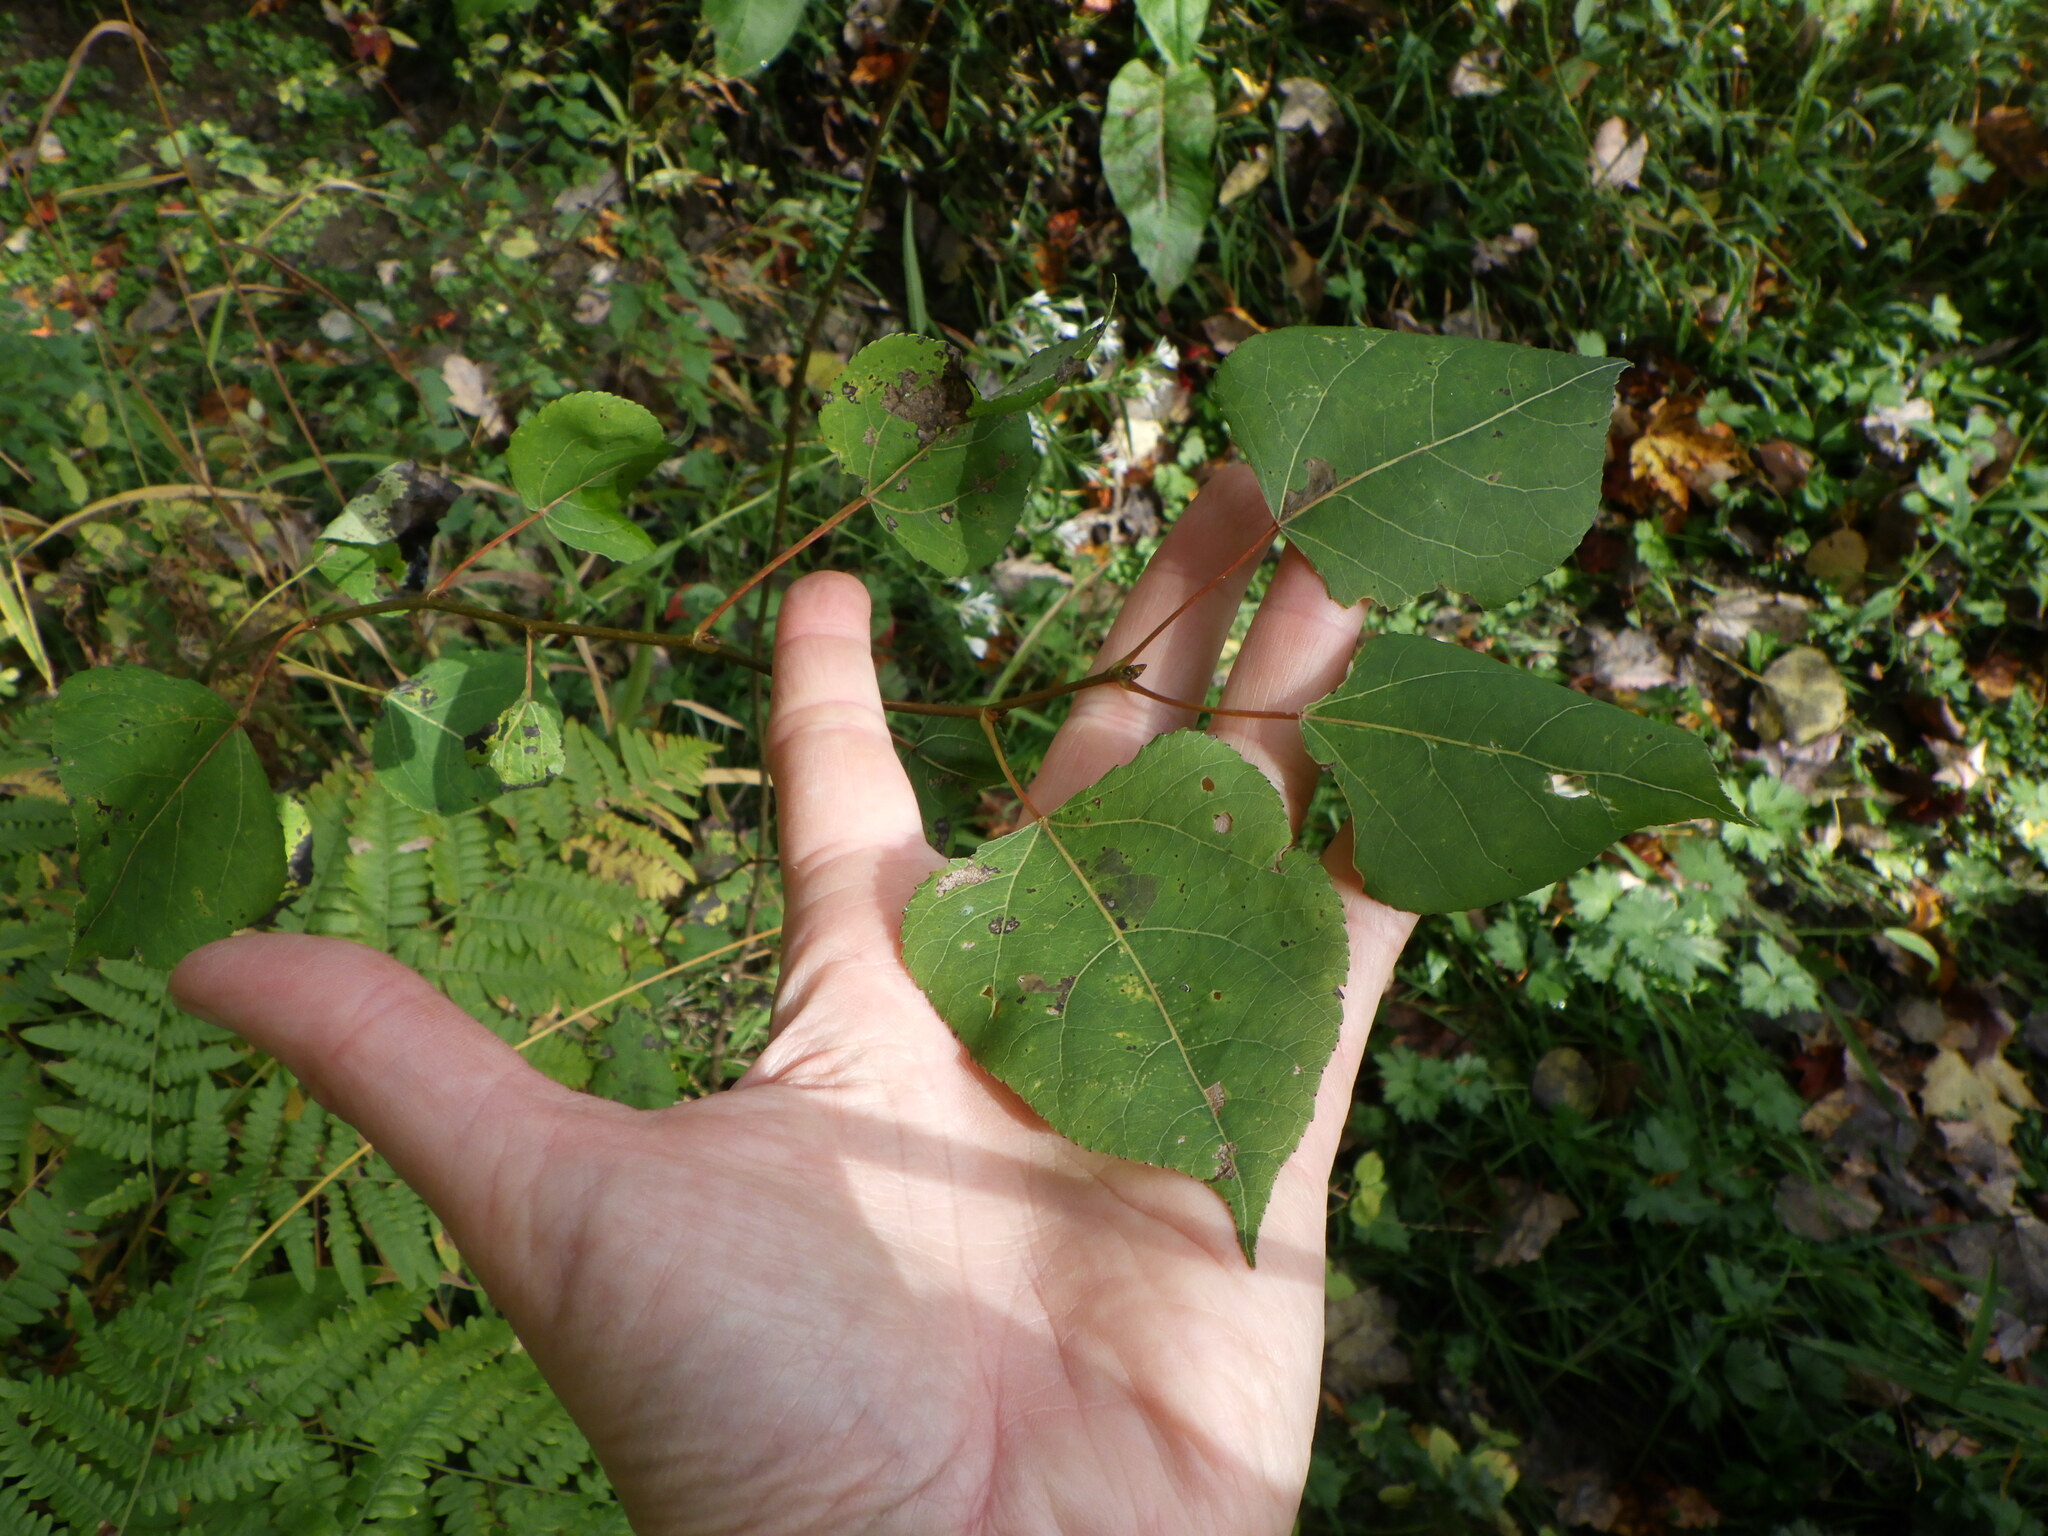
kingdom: Plantae
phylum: Tracheophyta
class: Magnoliopsida
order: Malpighiales
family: Salicaceae
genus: Populus
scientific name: Populus tremuloides
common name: Quaking aspen
